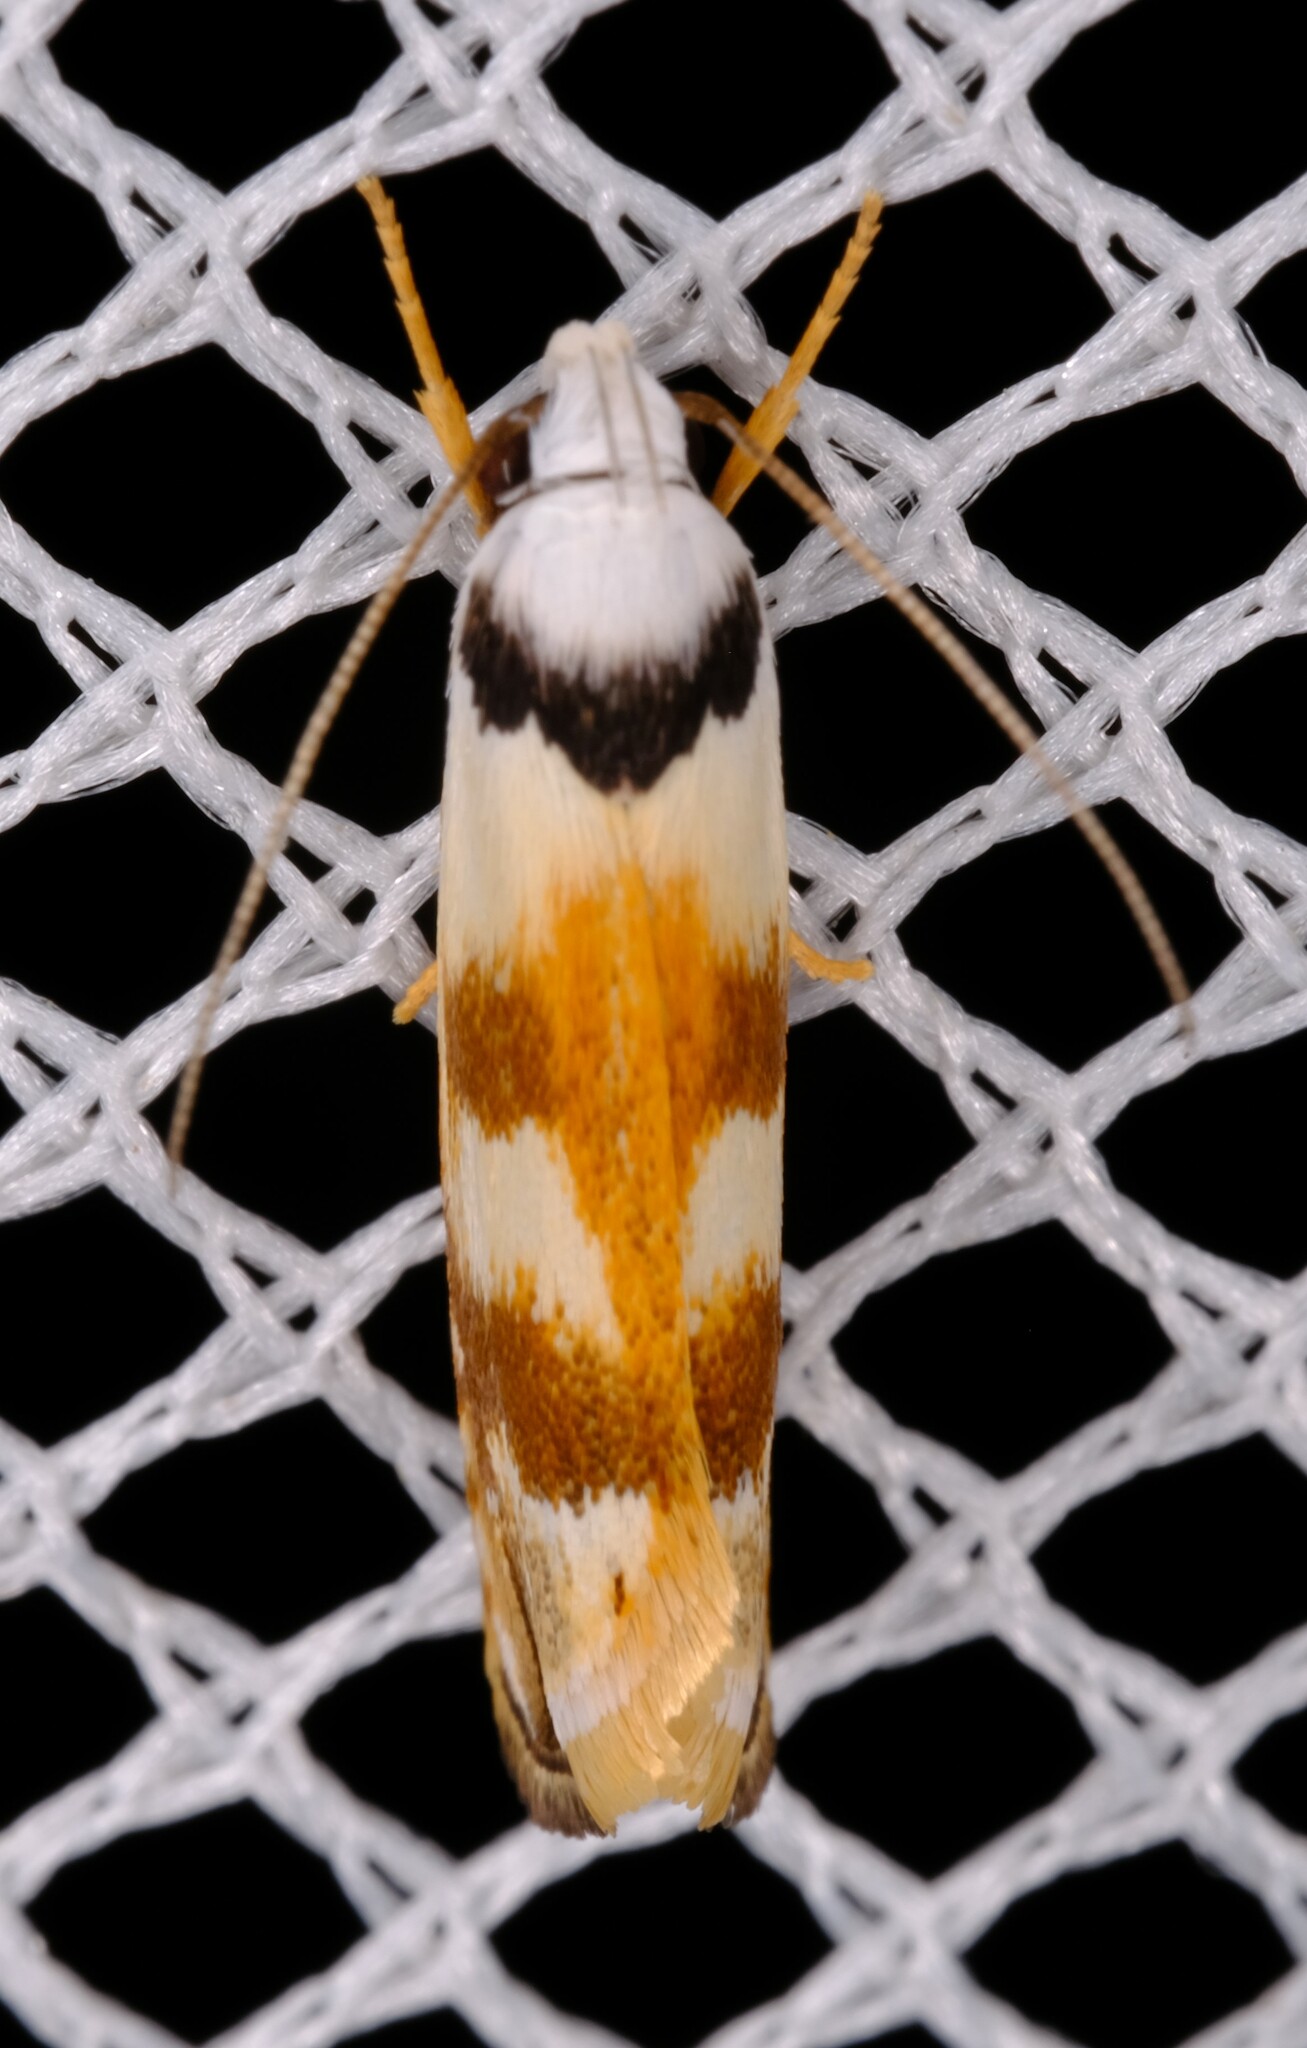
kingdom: Animalia
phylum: Arthropoda
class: Insecta
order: Lepidoptera
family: Xyloryctidae
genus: Plectophila
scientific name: Plectophila pyrgodes
